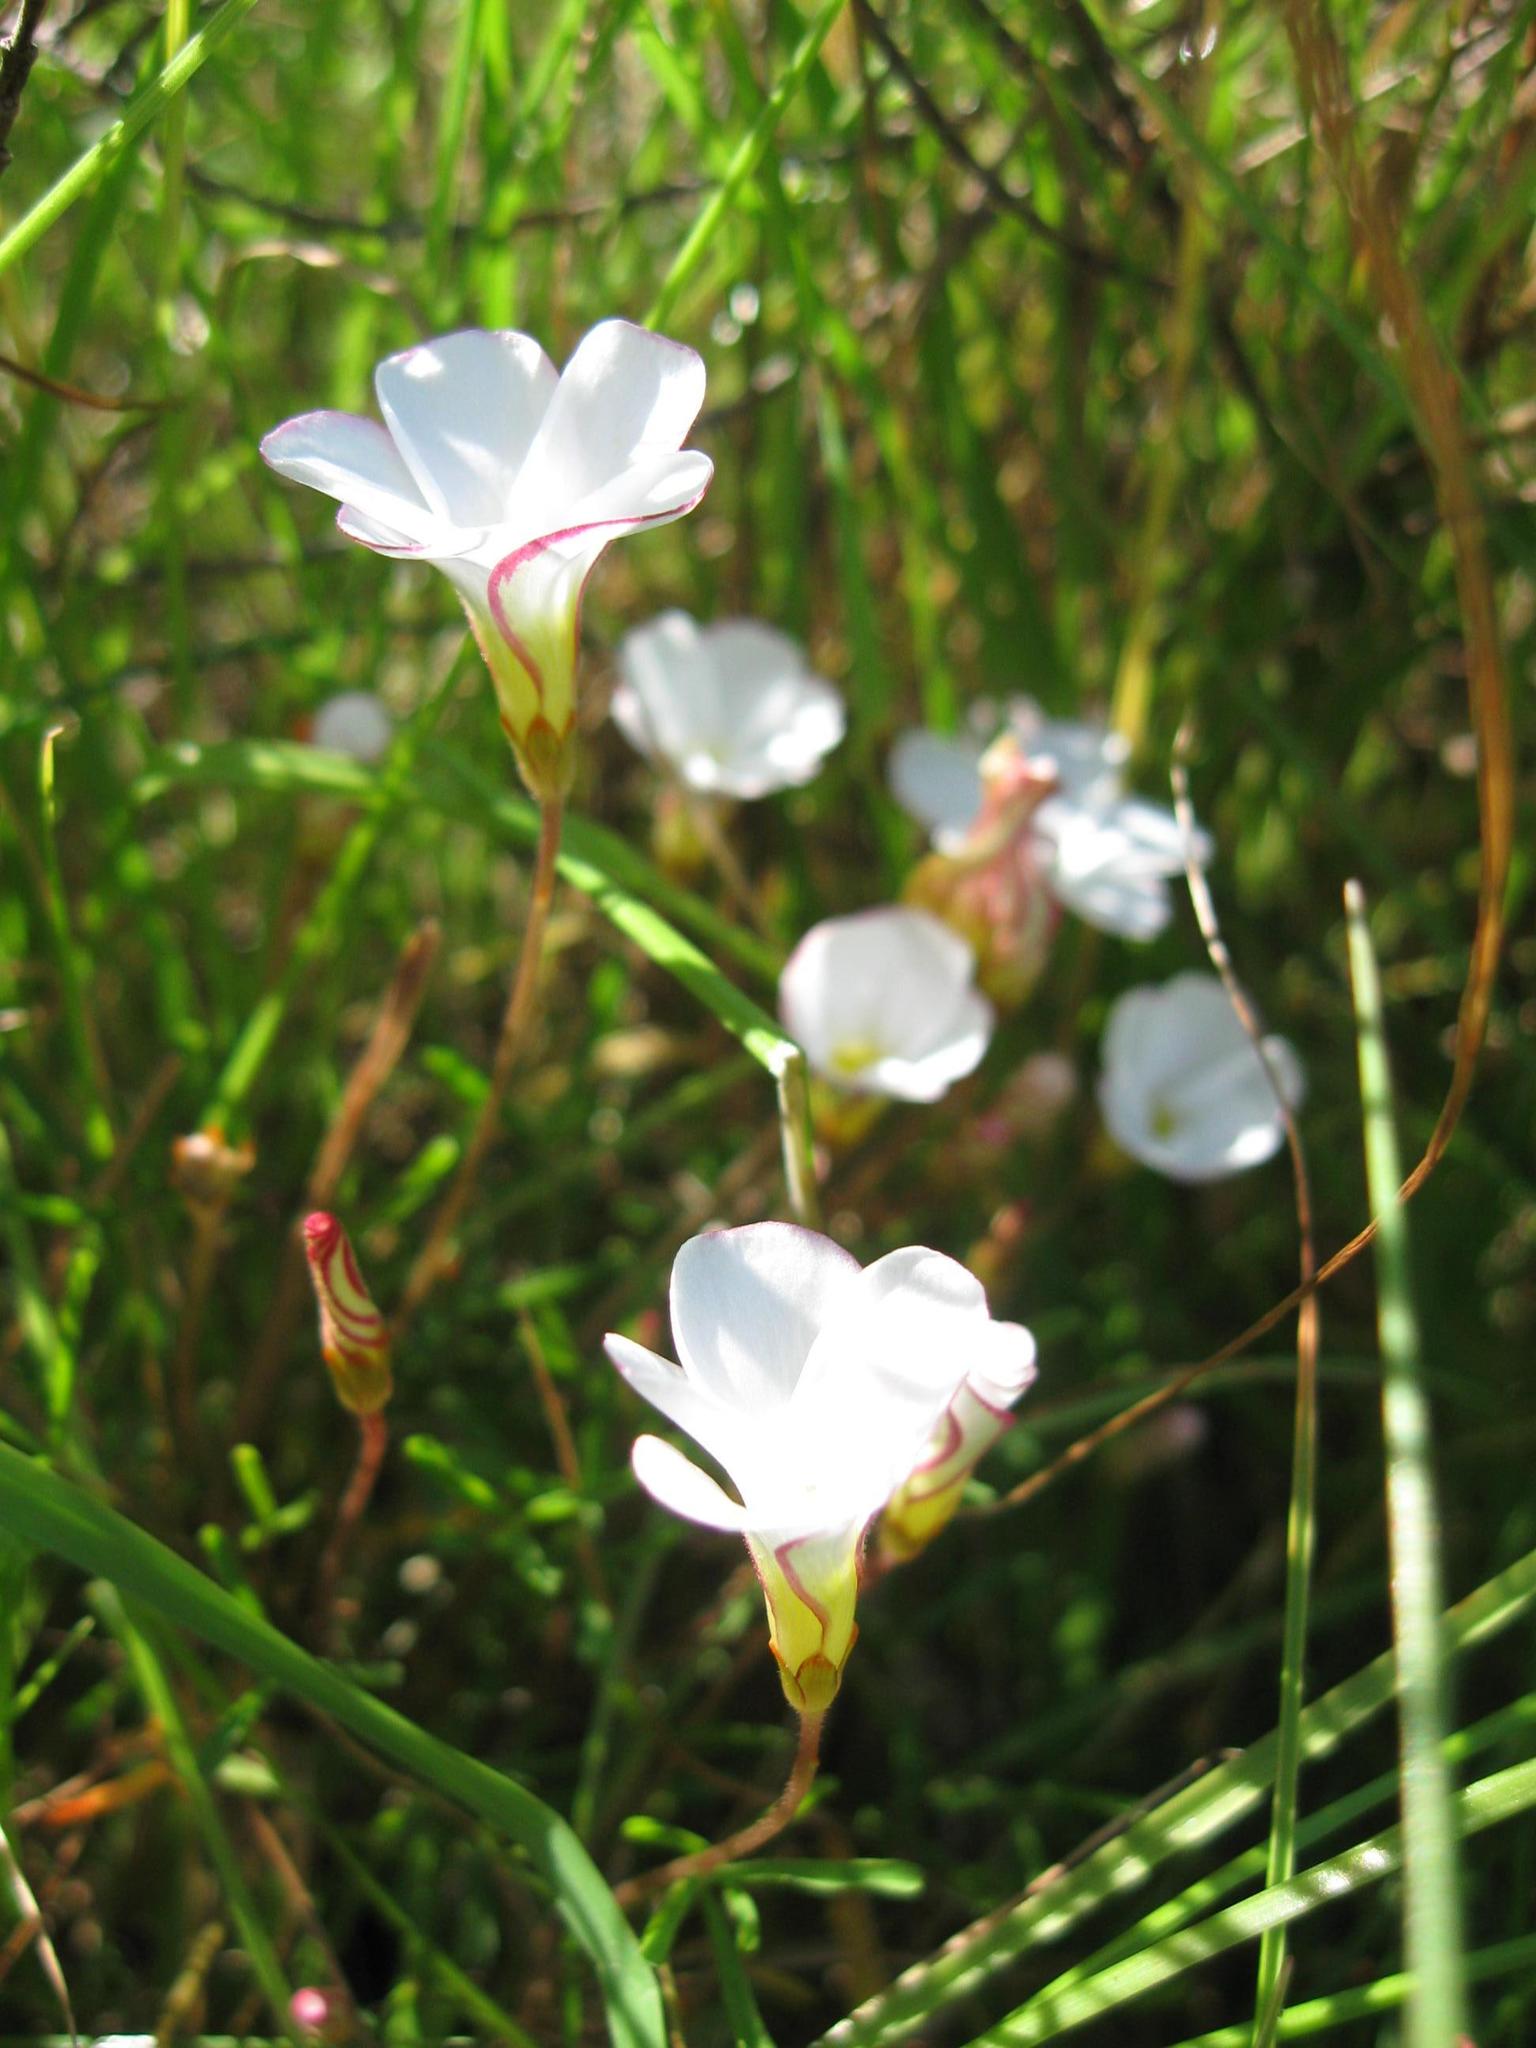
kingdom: Plantae
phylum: Tracheophyta
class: Magnoliopsida
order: Oxalidales
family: Oxalidaceae
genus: Oxalis
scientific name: Oxalis versicolor
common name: Peppermint rock oxalis
